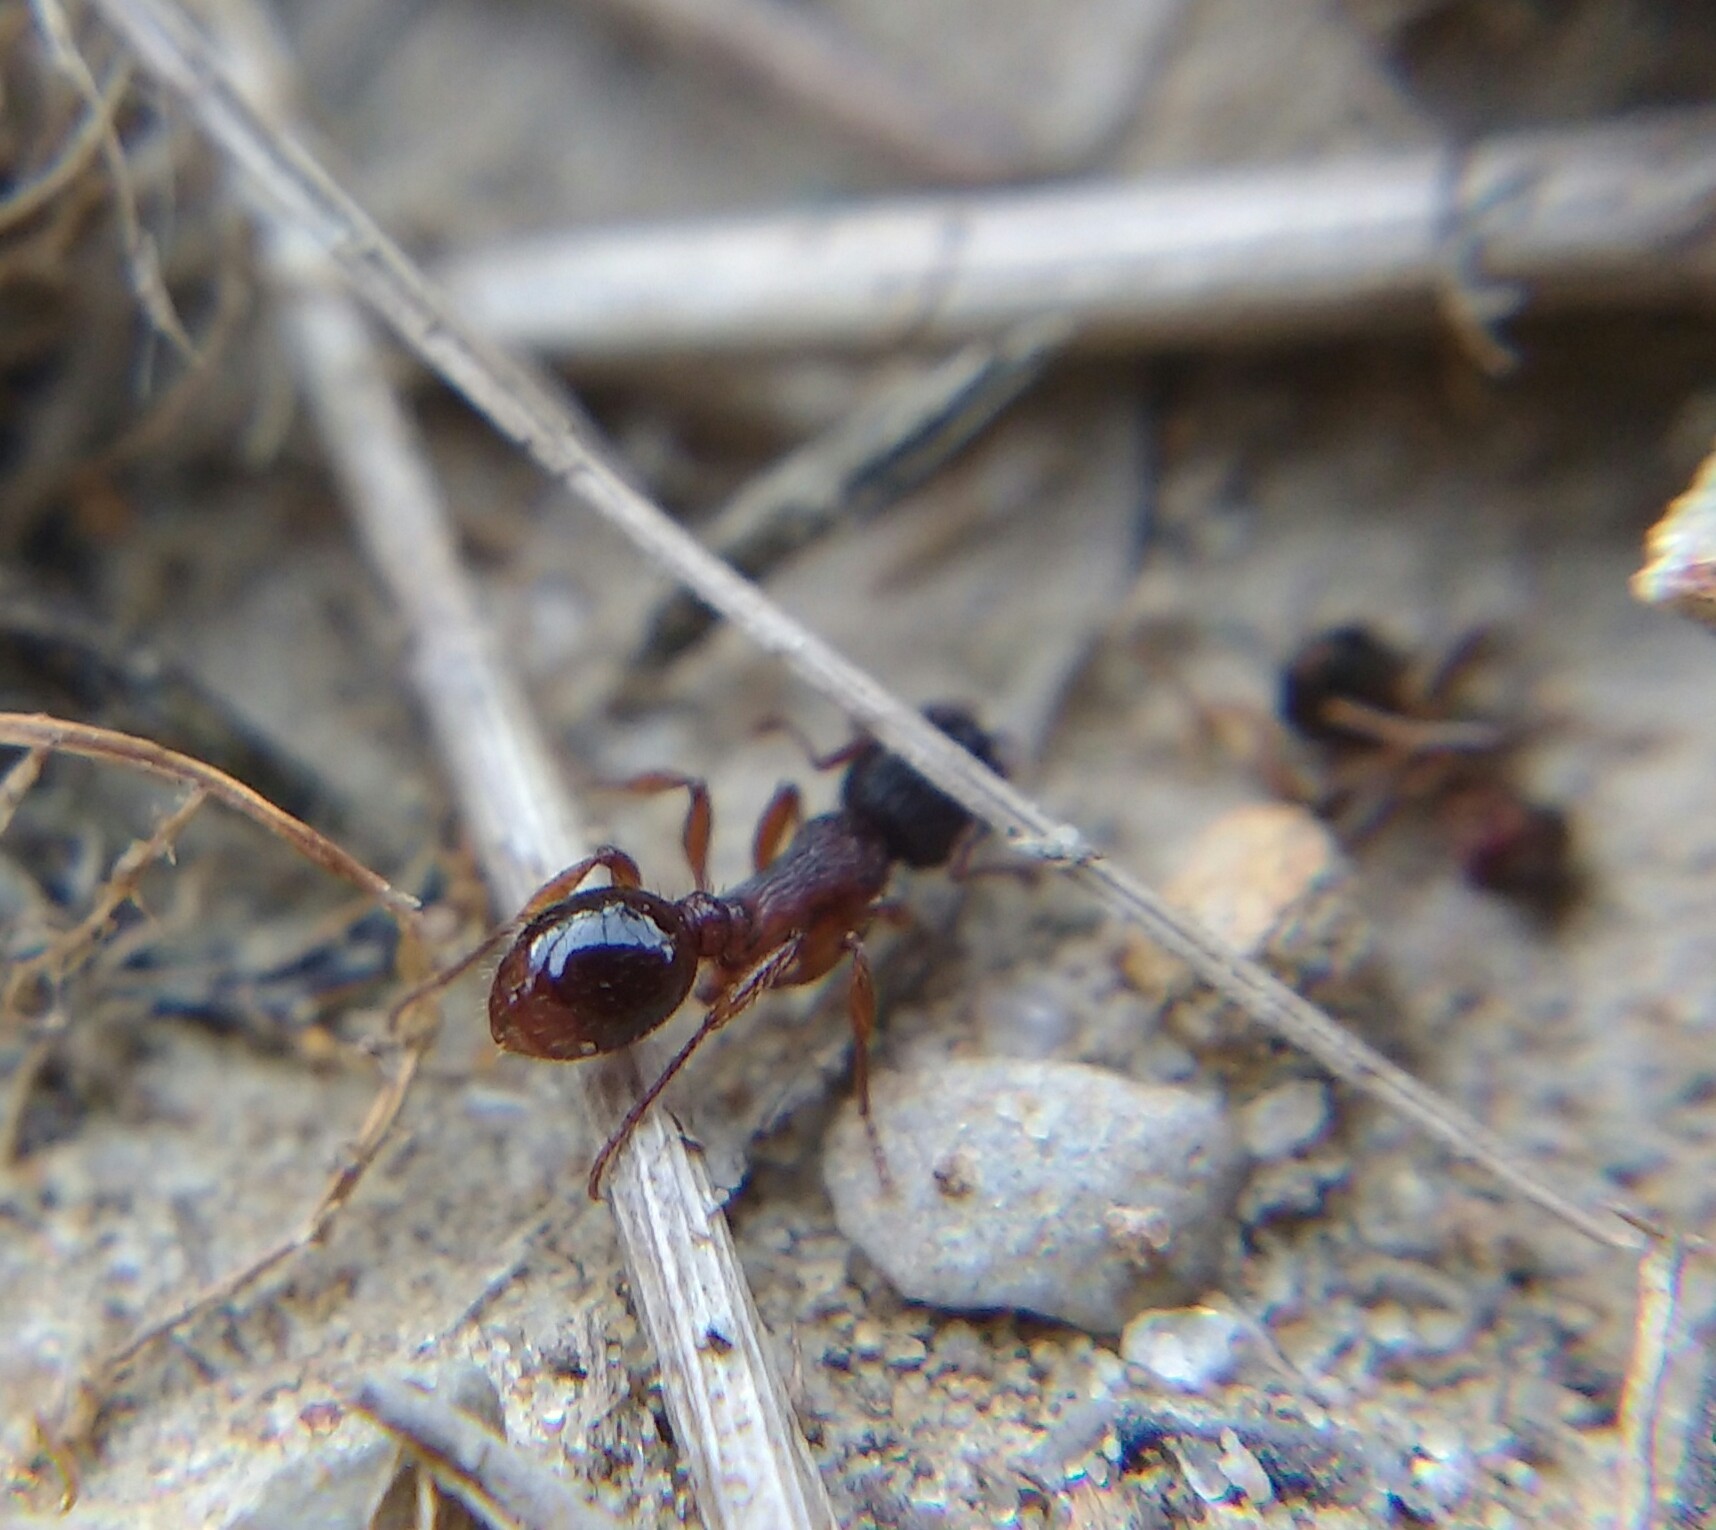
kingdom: Animalia
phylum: Arthropoda
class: Insecta
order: Hymenoptera
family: Formicidae
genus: Myrmica
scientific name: Myrmica schencki
